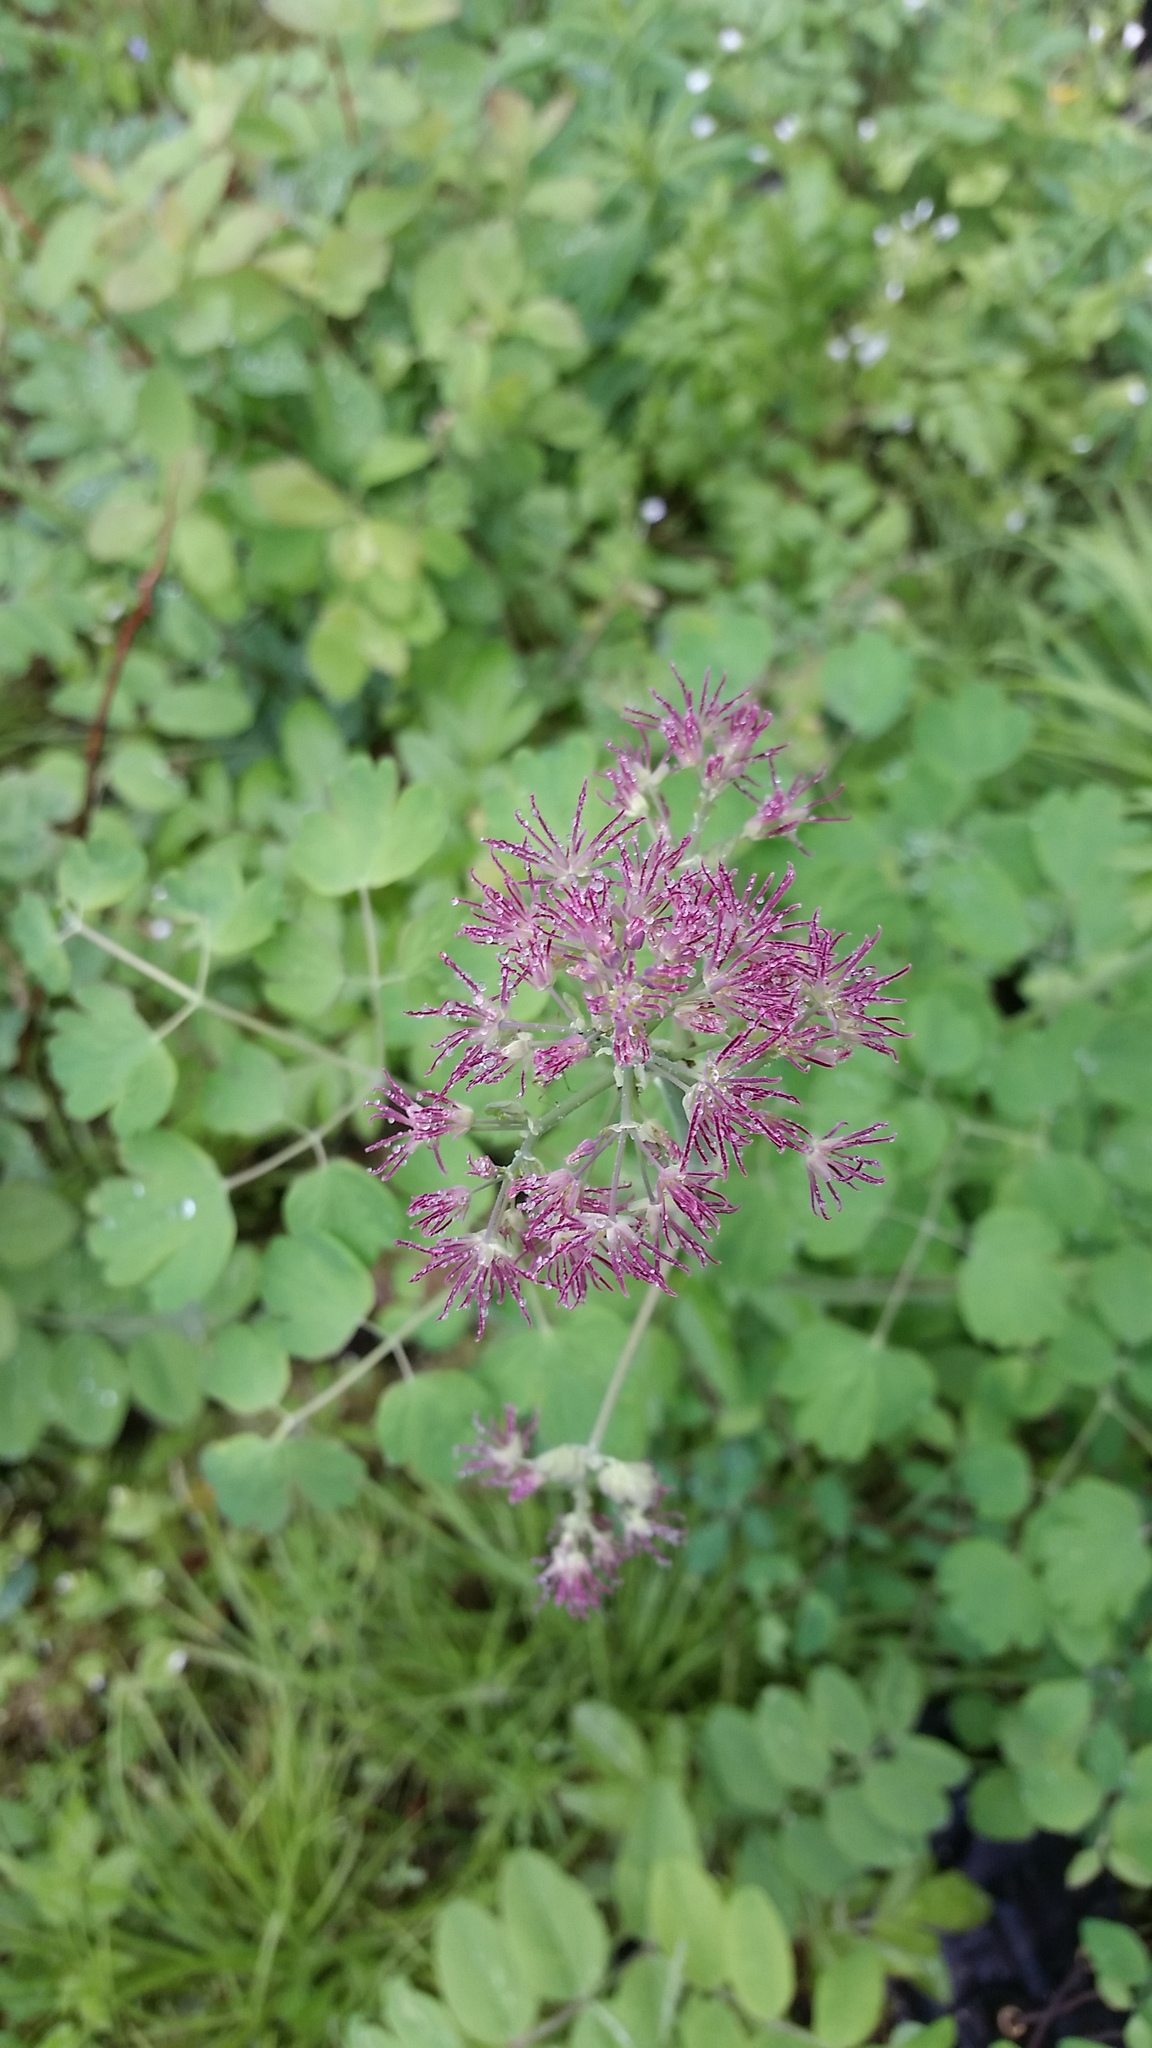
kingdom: Plantae
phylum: Tracheophyta
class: Magnoliopsida
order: Ranunculales
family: Ranunculaceae
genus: Thalictrum
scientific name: Thalictrum occidentale
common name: Western meadow-rue
